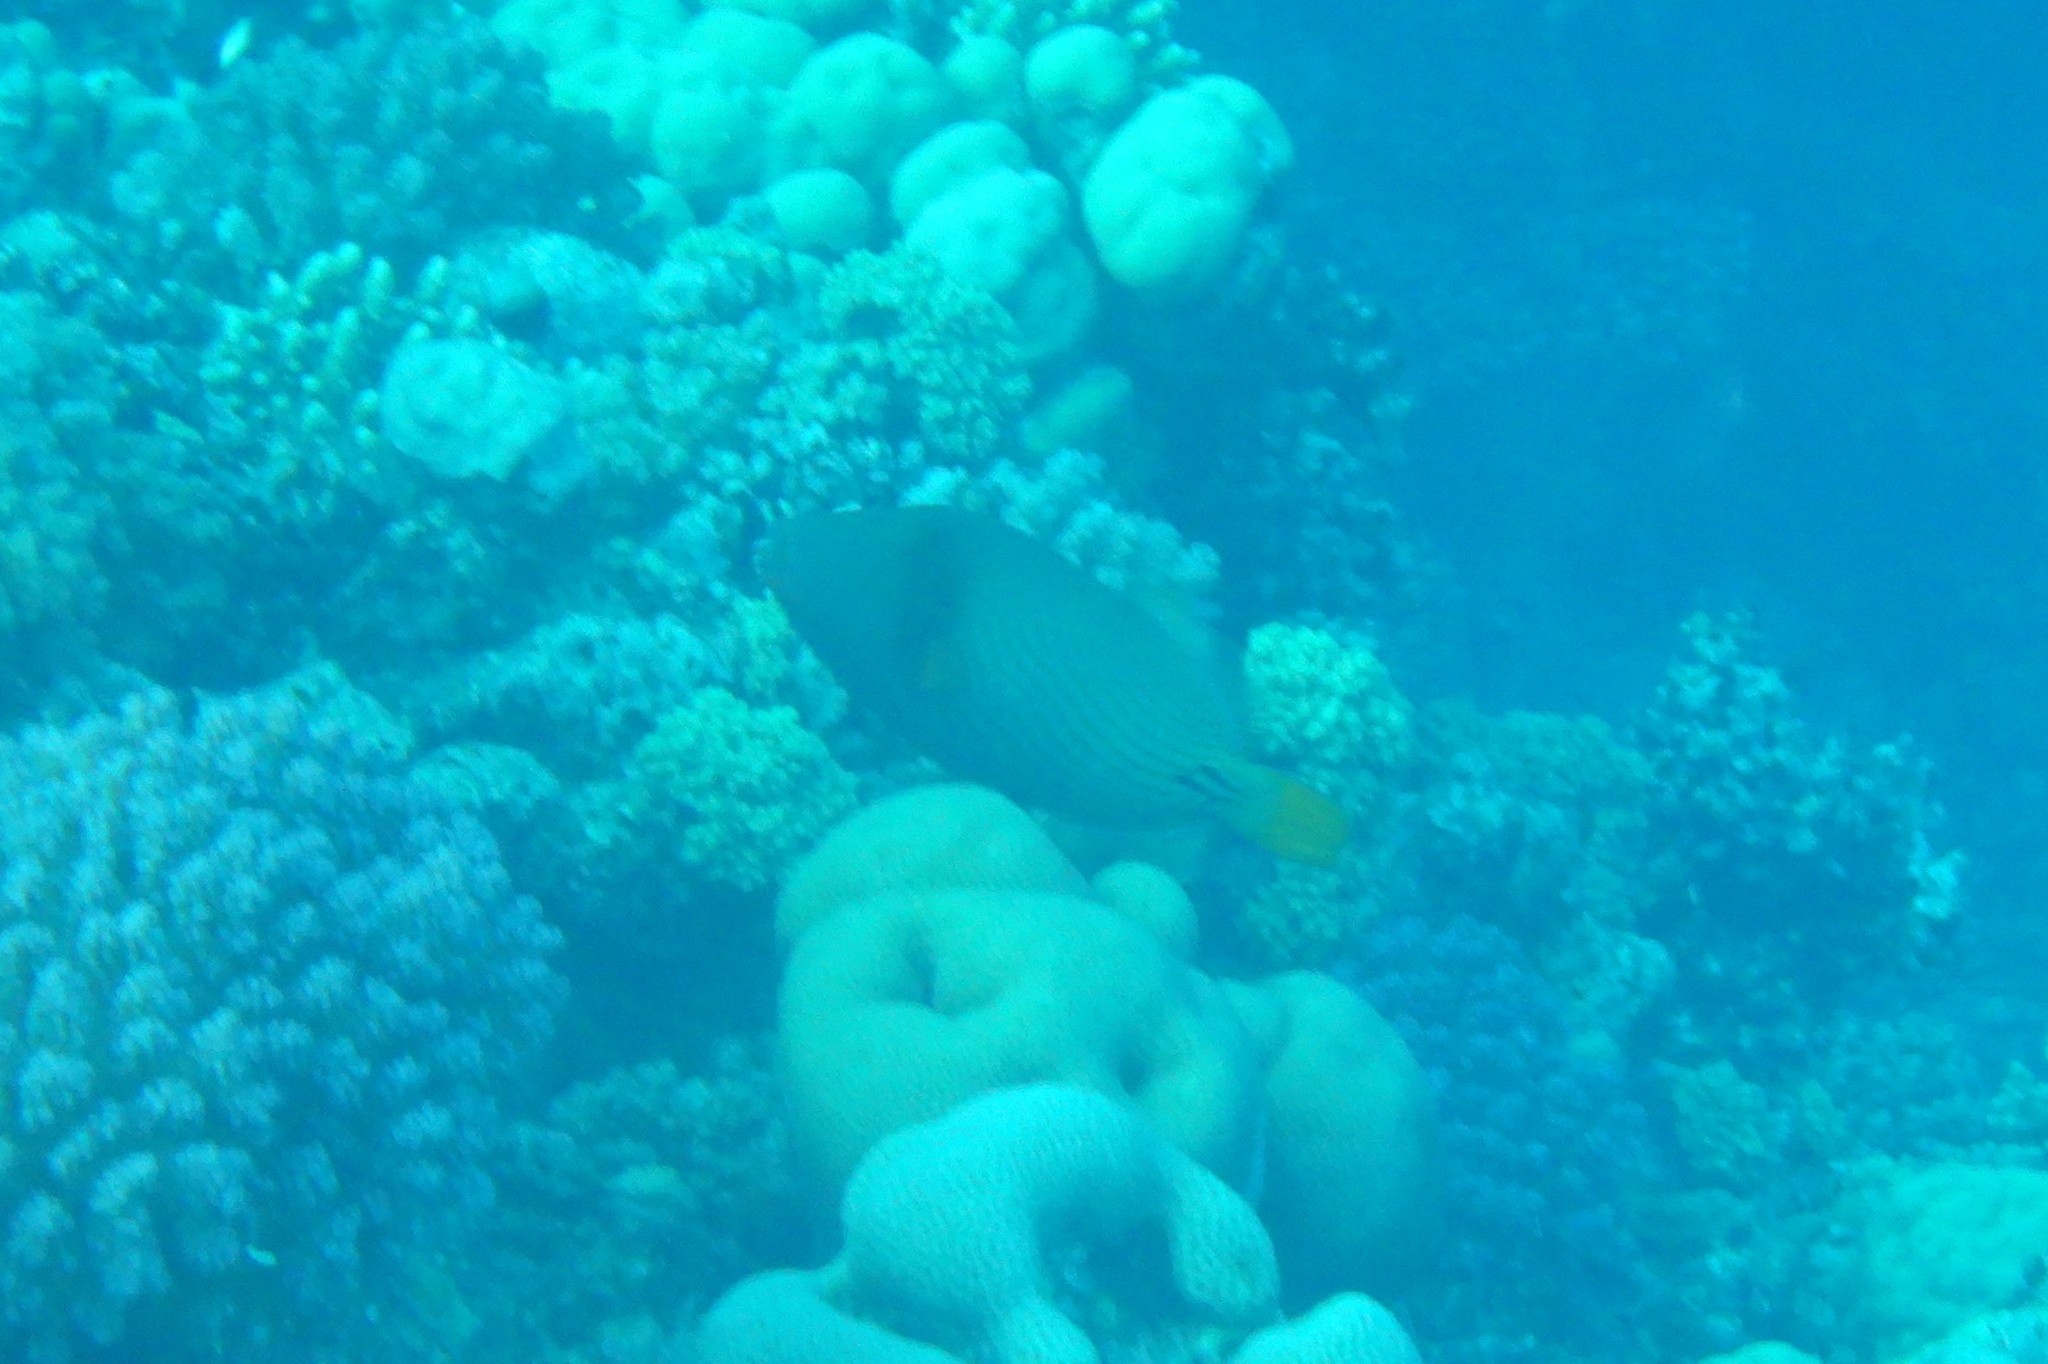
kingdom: Animalia
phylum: Chordata
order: Tetraodontiformes
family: Balistidae
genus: Balistapus
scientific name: Balistapus undulatus
